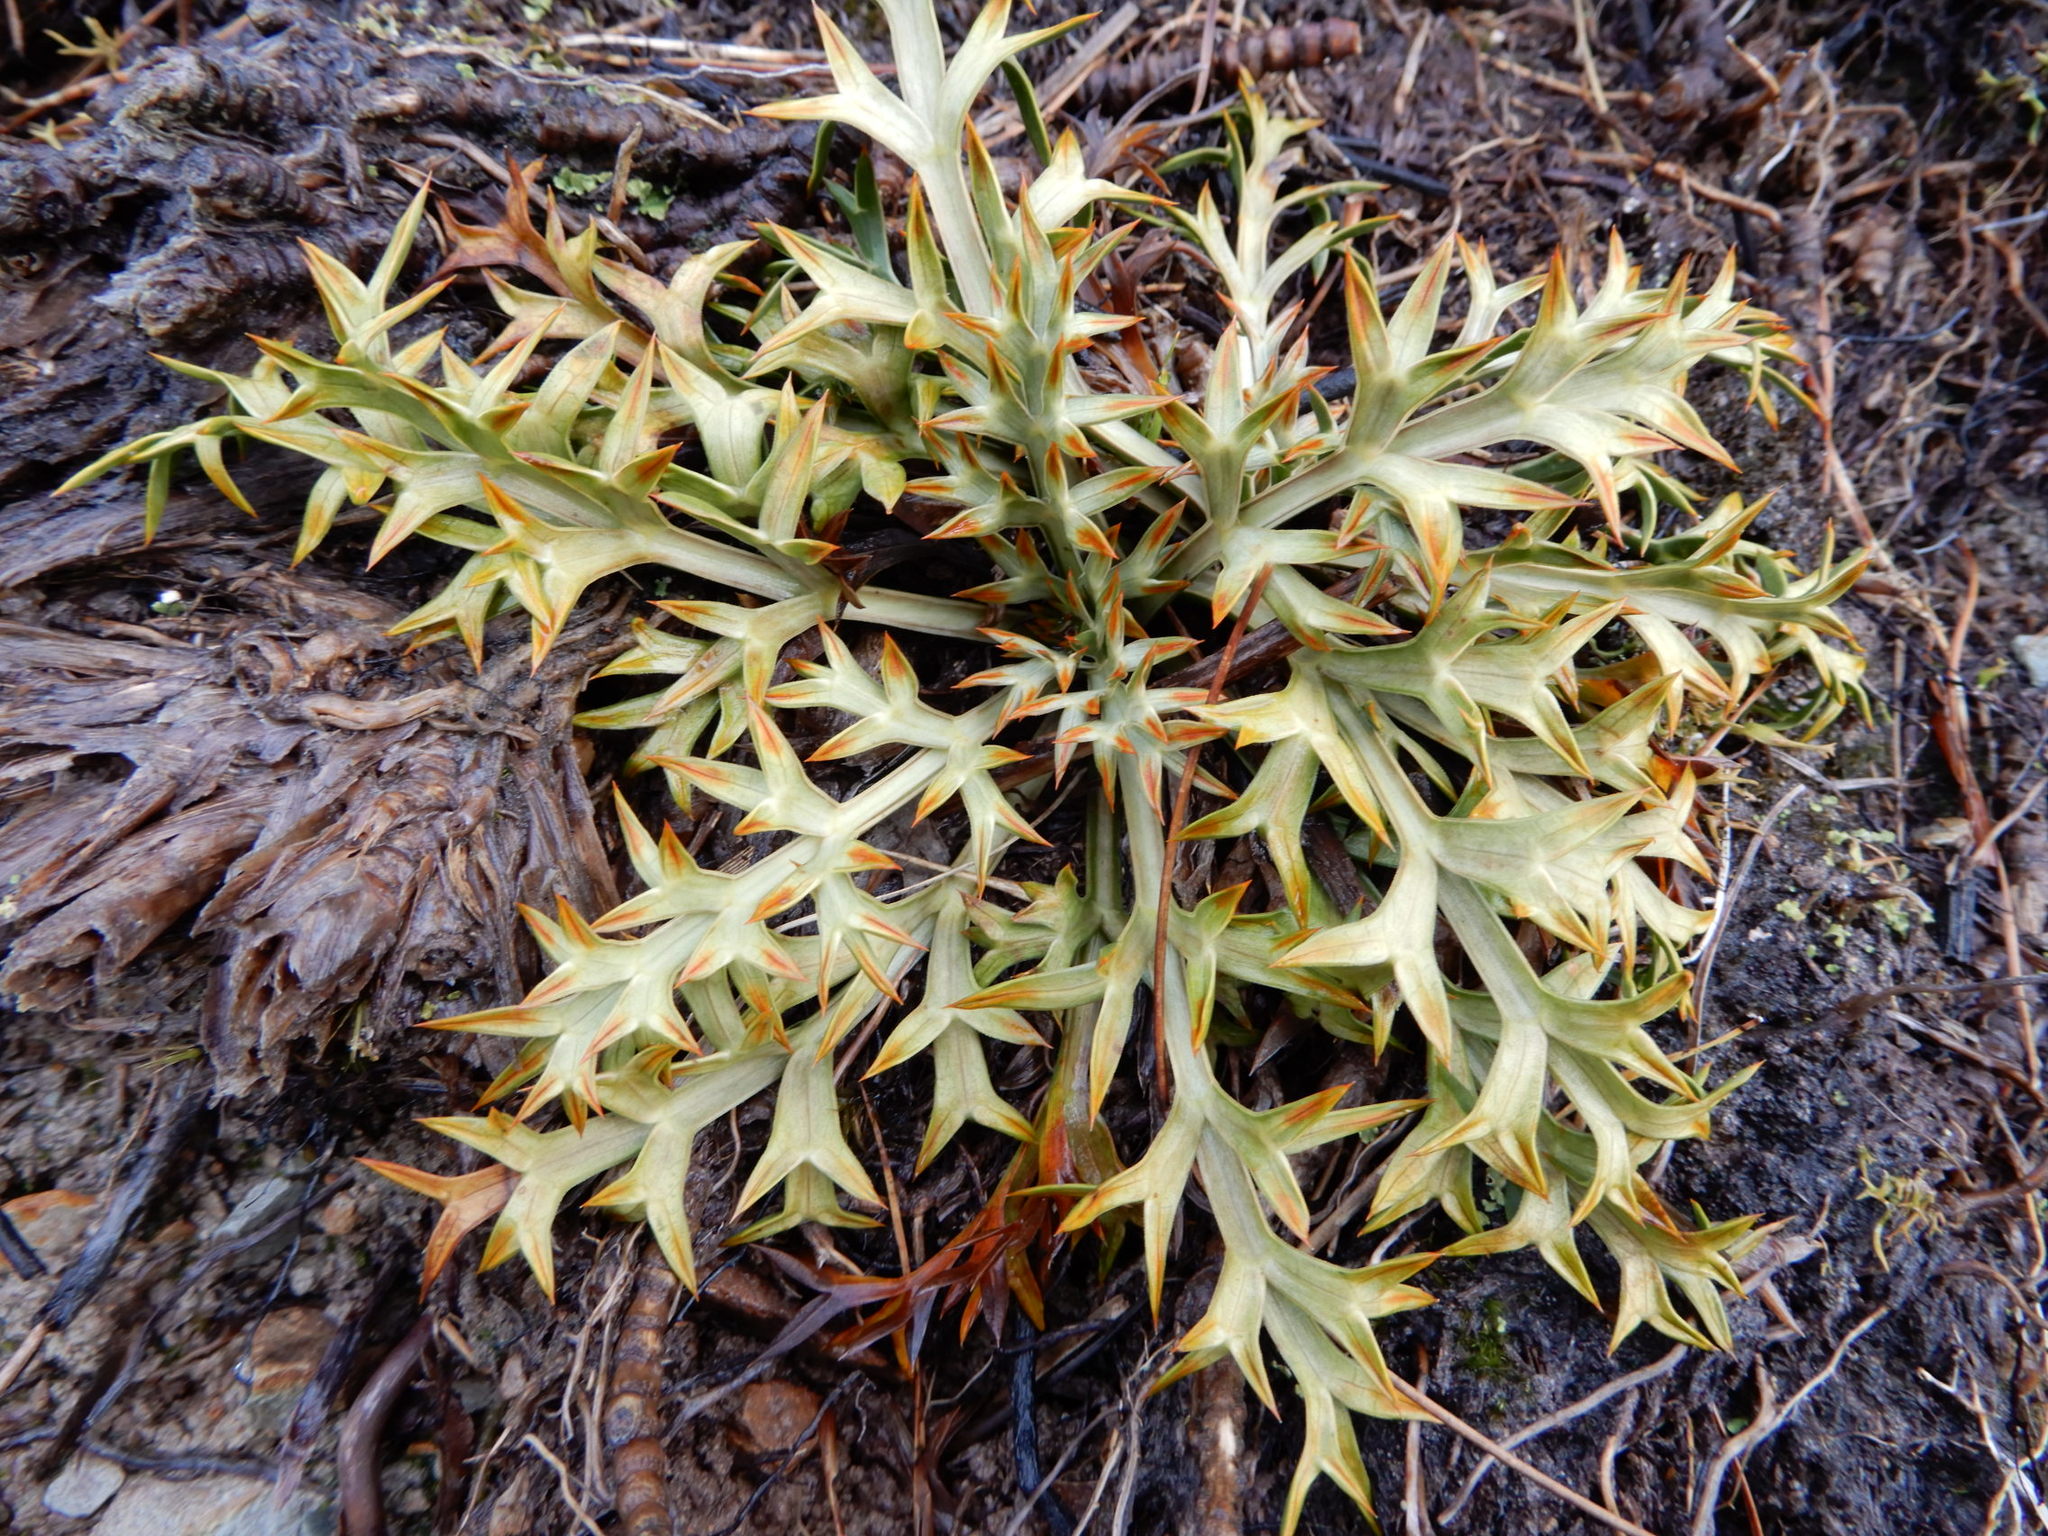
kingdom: Plantae
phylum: Tracheophyta
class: Magnoliopsida
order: Apiales
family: Apiaceae
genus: Aciphylla
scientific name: Aciphylla hookeri
